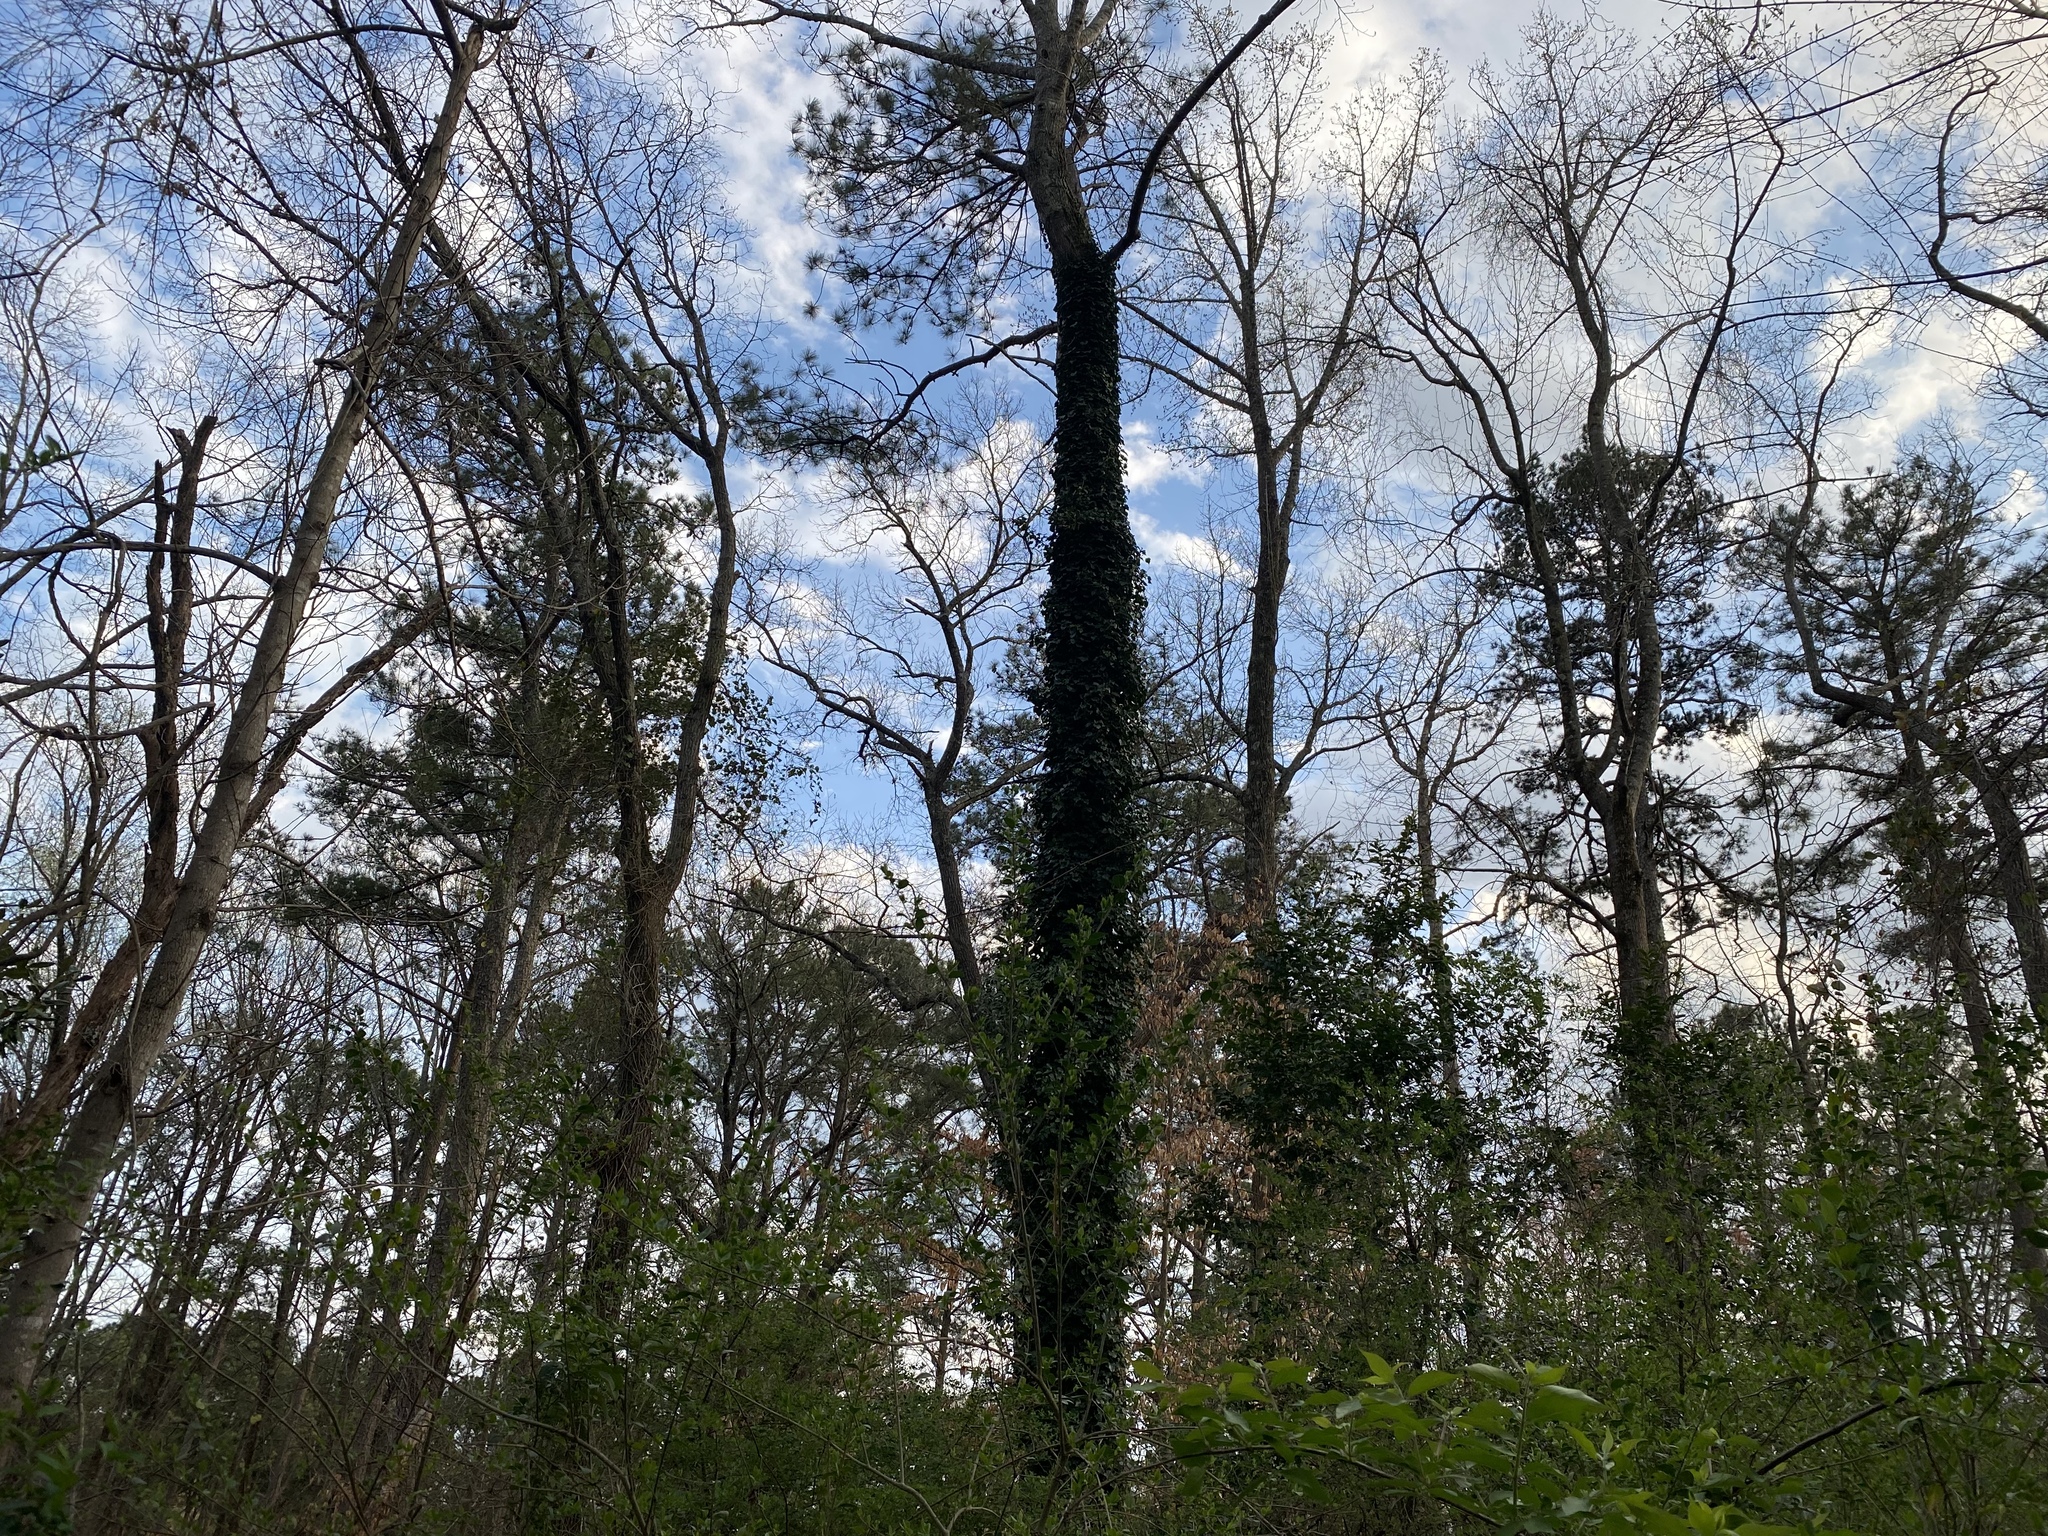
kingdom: Animalia
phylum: Chordata
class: Aves
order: Passeriformes
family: Passerellidae
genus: Pipilo
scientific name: Pipilo erythrophthalmus
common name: Eastern towhee
